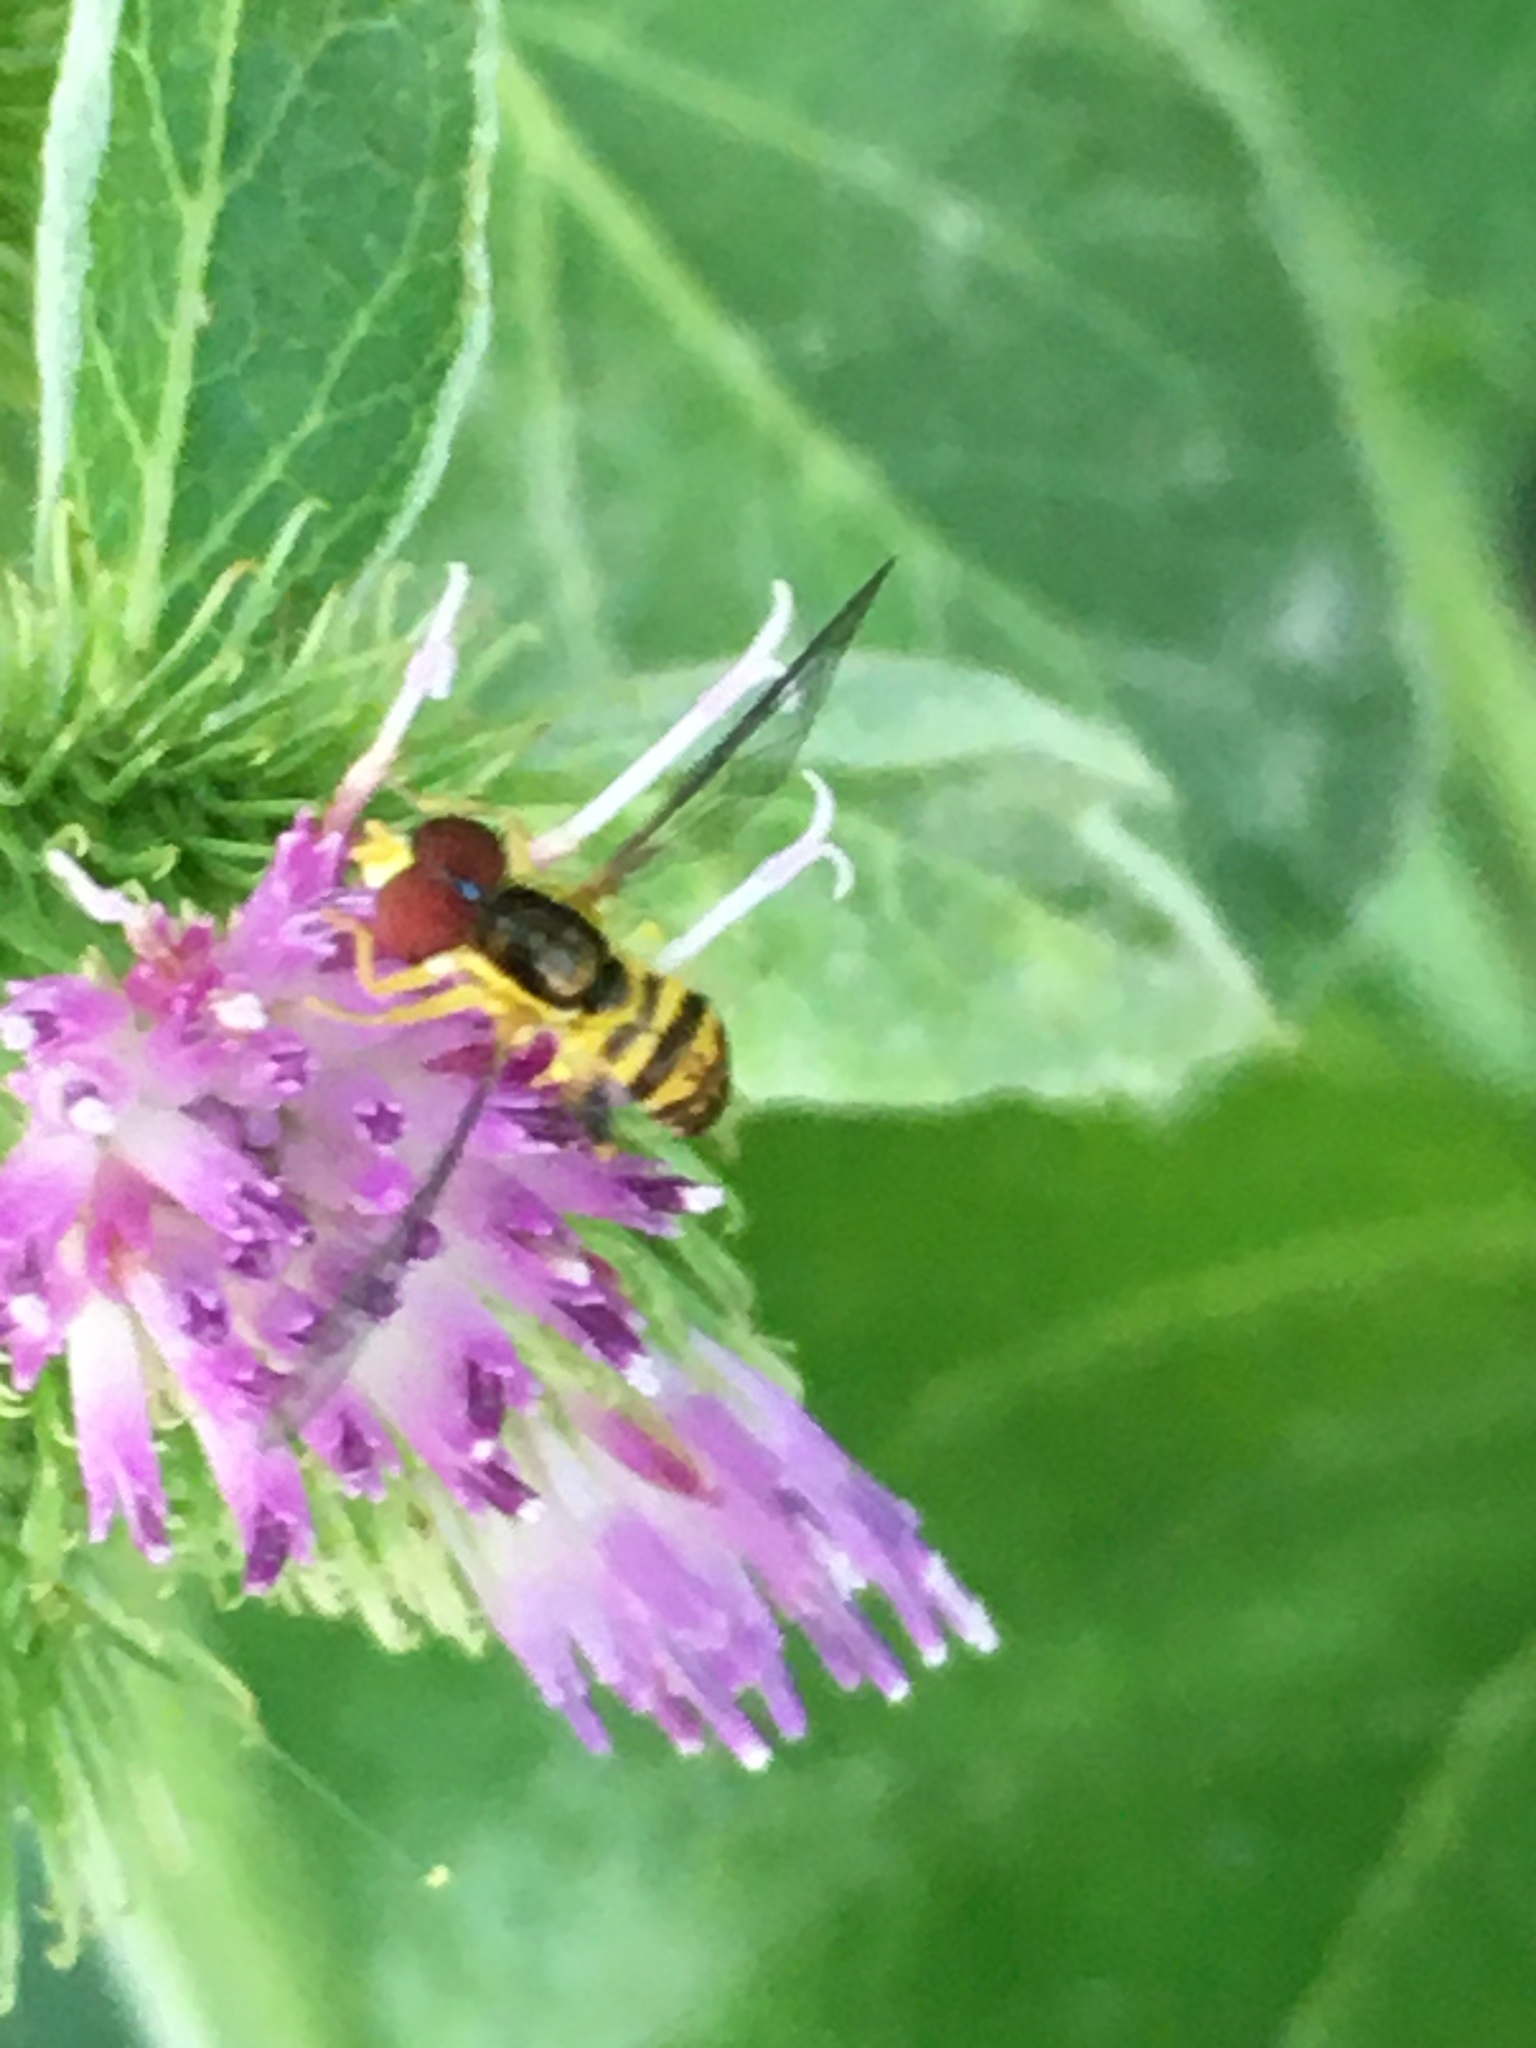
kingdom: Animalia
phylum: Arthropoda
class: Insecta
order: Diptera
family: Syrphidae
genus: Toxomerus
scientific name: Toxomerus geminatus
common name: Eastern calligrapher
